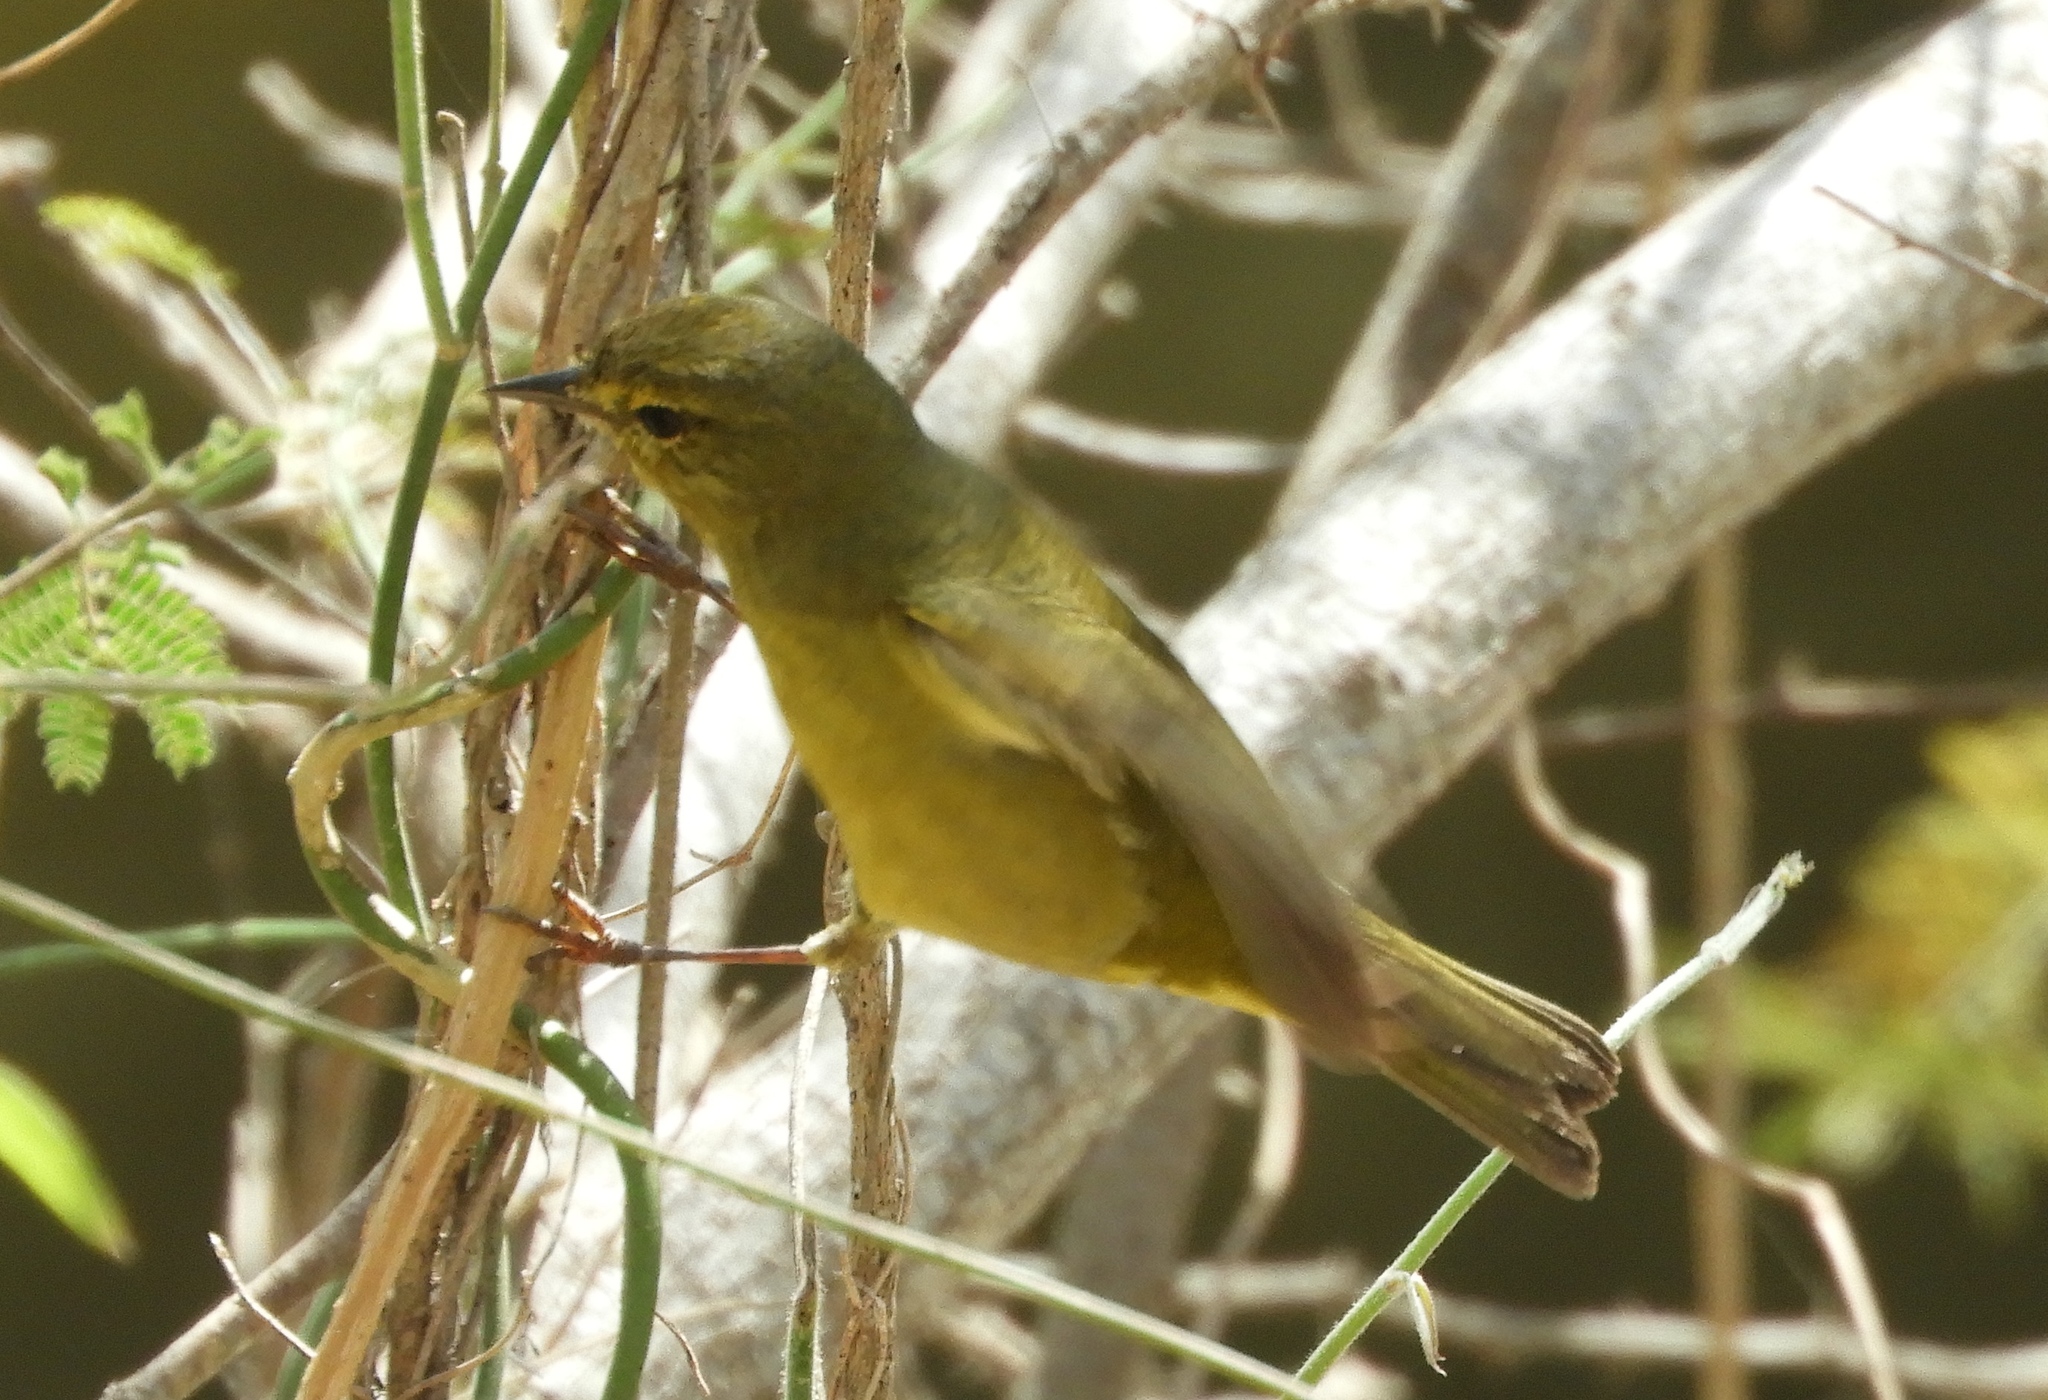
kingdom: Animalia
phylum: Chordata
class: Aves
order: Passeriformes
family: Parulidae
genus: Leiothlypis
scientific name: Leiothlypis celata
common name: Orange-crowned warbler
